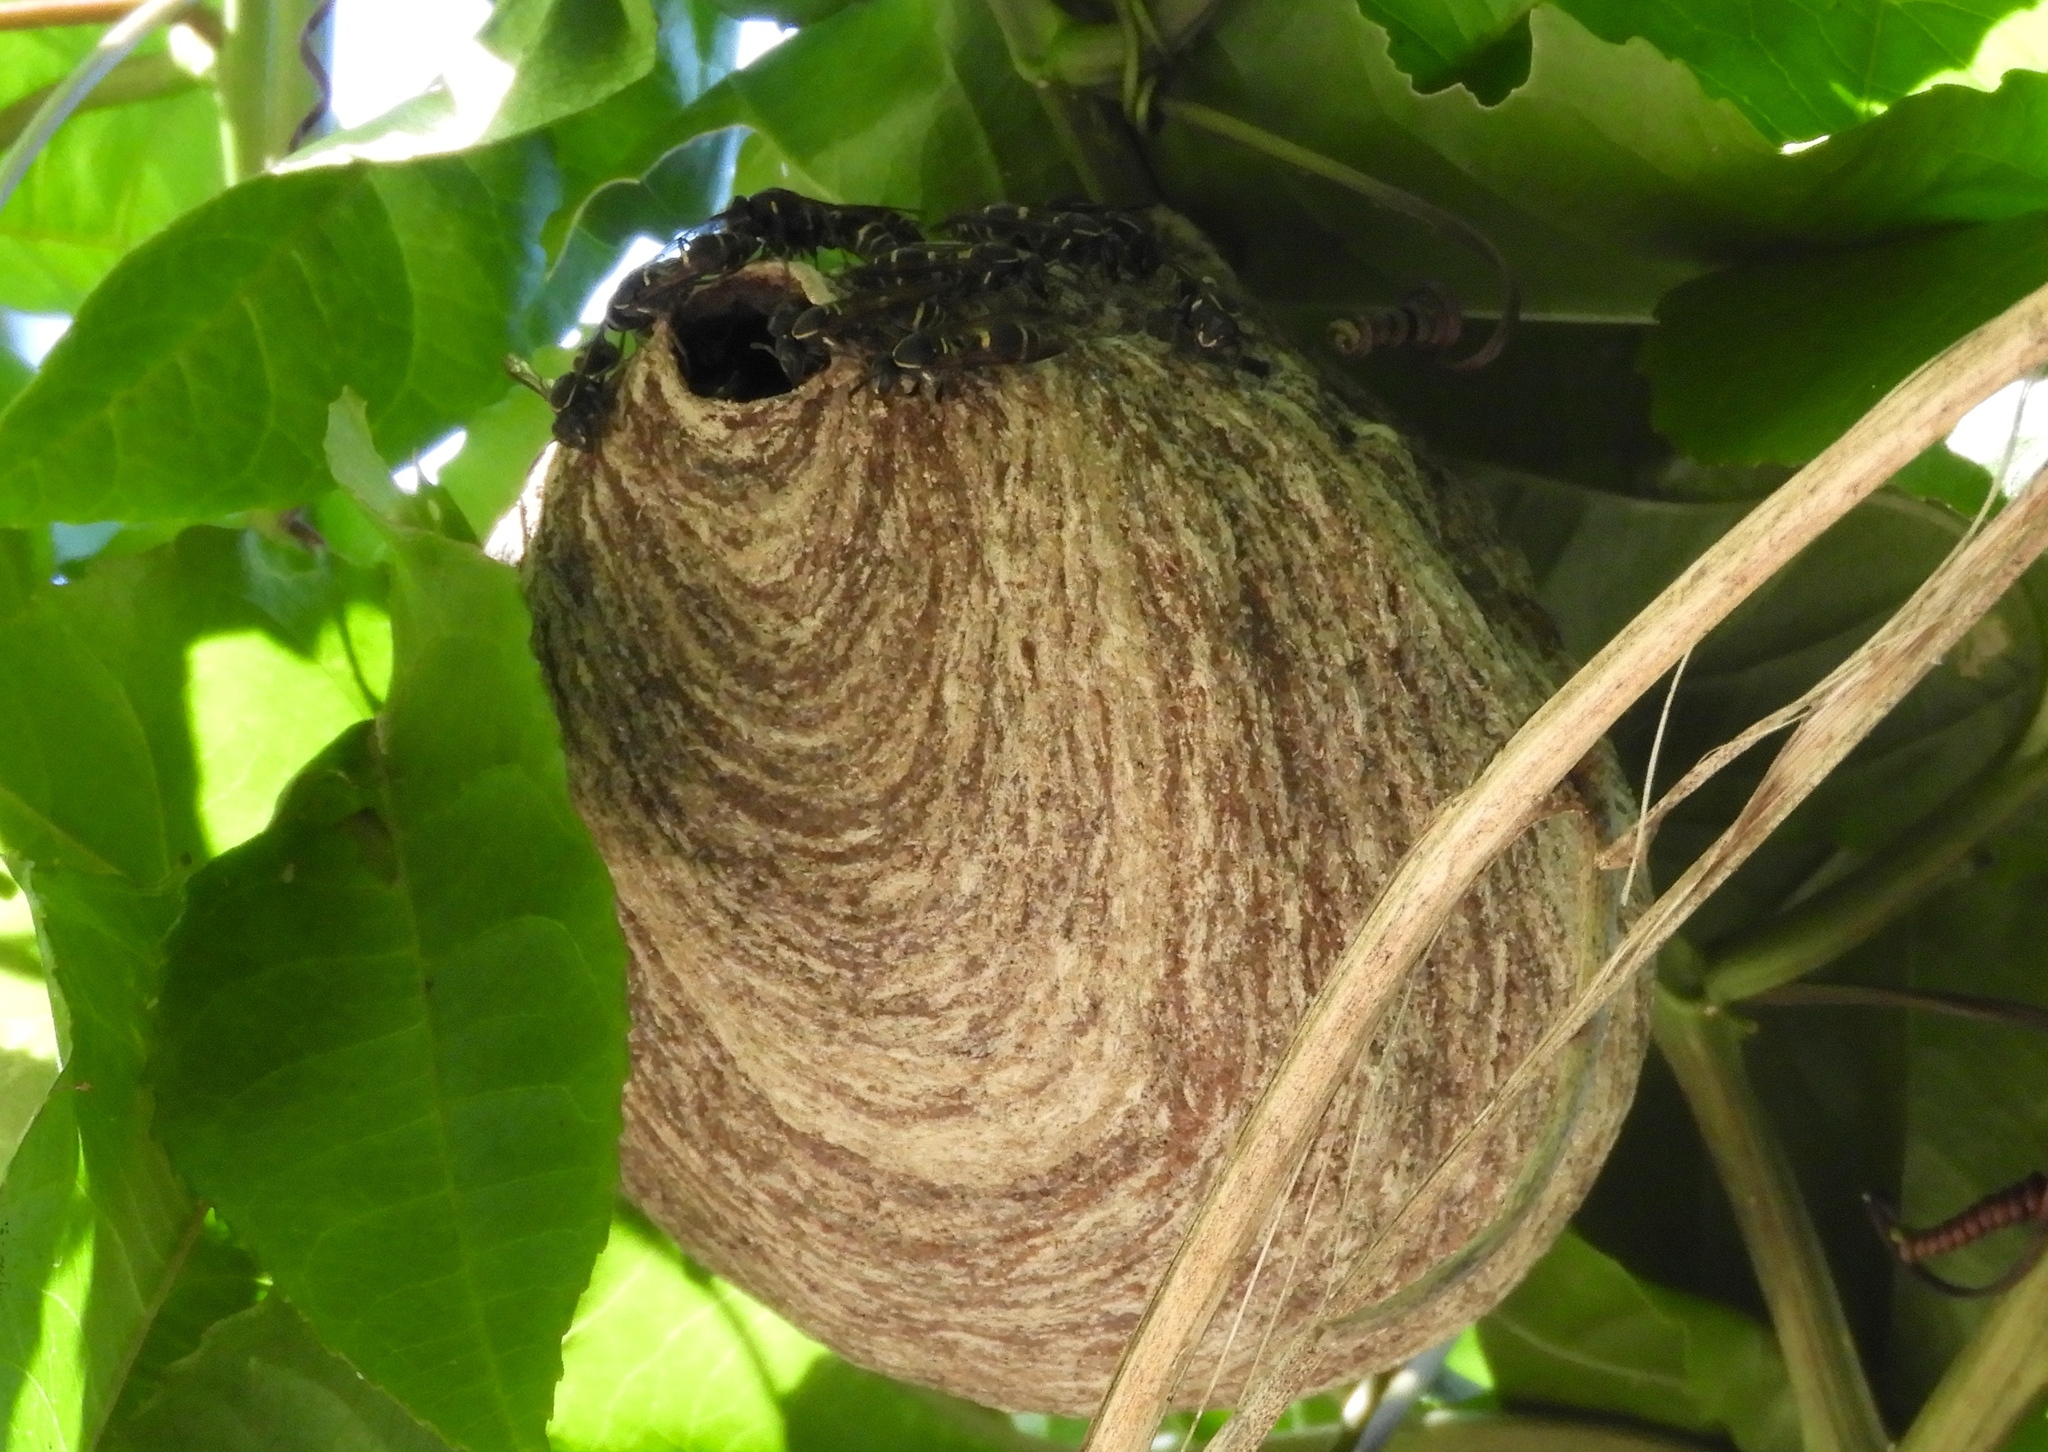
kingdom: Animalia
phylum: Arthropoda
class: Insecta
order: Hymenoptera
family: Vespidae
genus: Myrapetra
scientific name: Myrapetra
